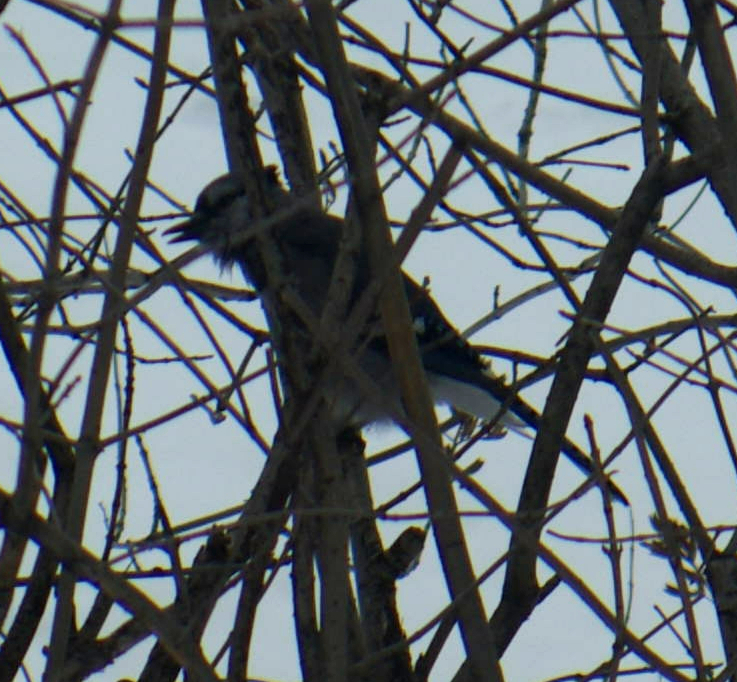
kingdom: Animalia
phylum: Chordata
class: Aves
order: Passeriformes
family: Corvidae
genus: Cyanocitta
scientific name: Cyanocitta cristata
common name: Blue jay
